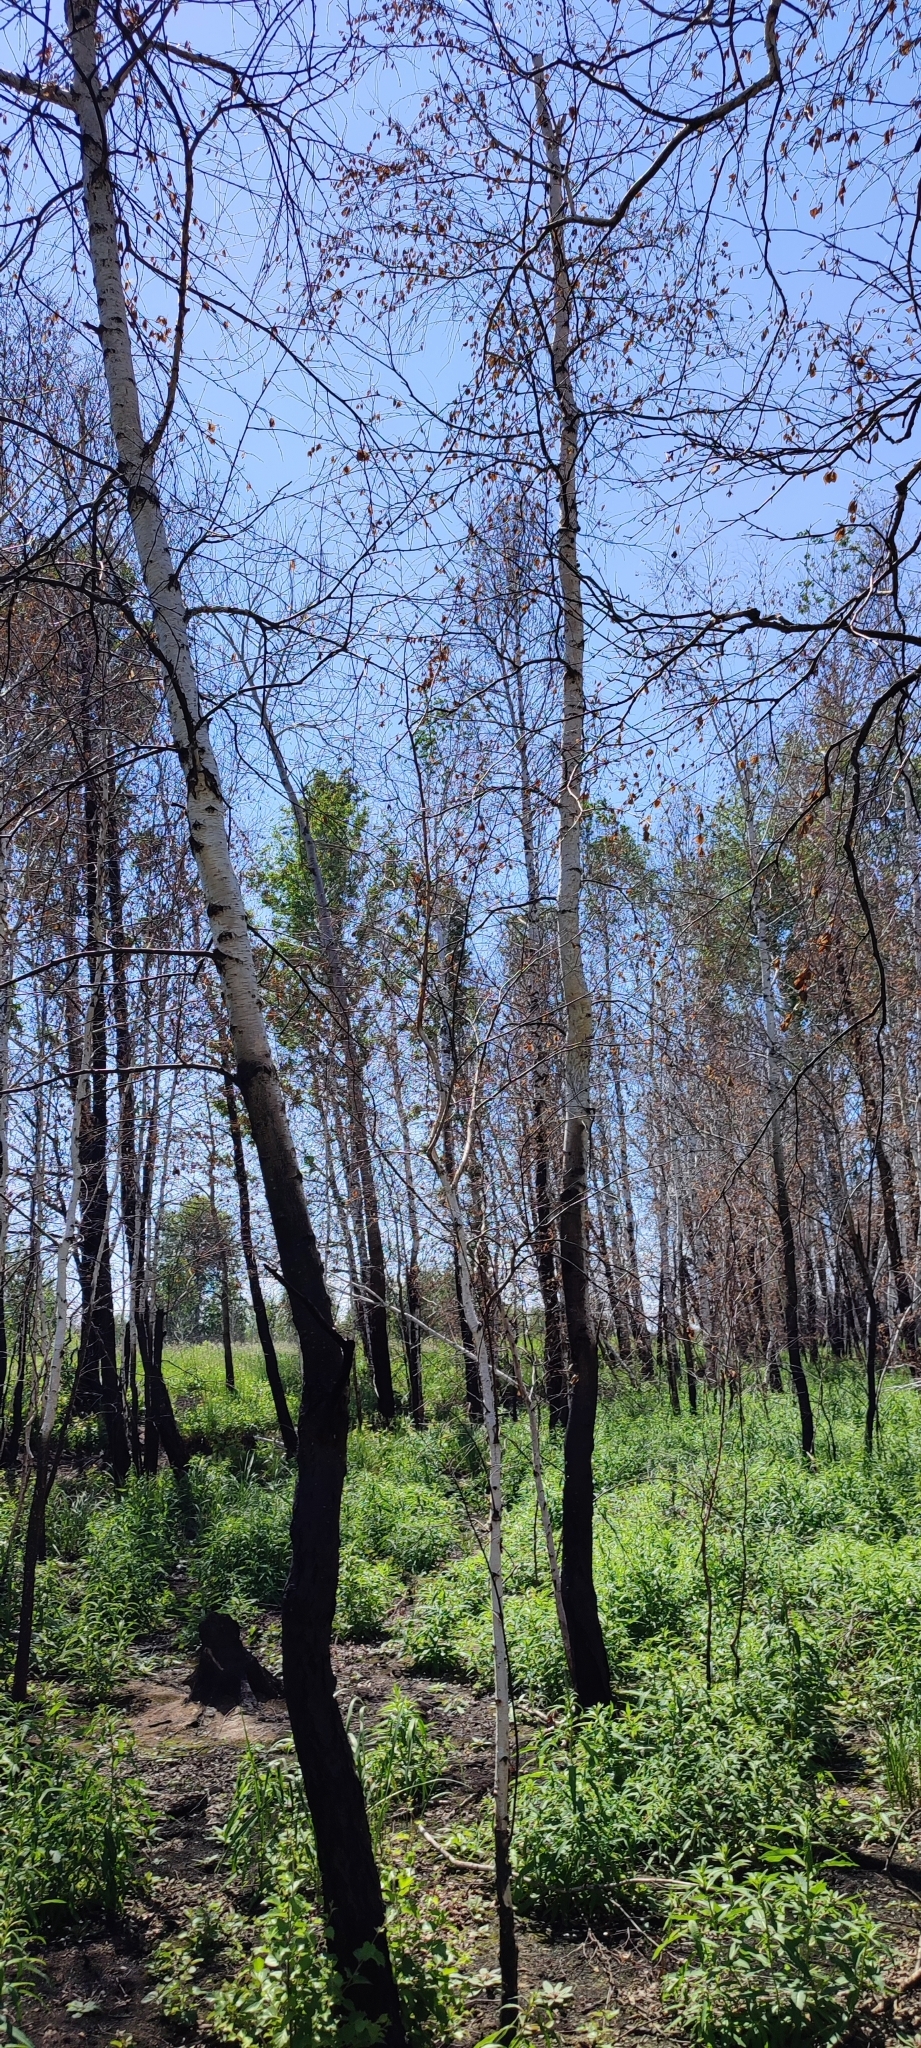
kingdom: Plantae
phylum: Tracheophyta
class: Magnoliopsida
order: Fagales
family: Betulaceae
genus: Betula
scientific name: Betula pendula
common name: Silver birch
